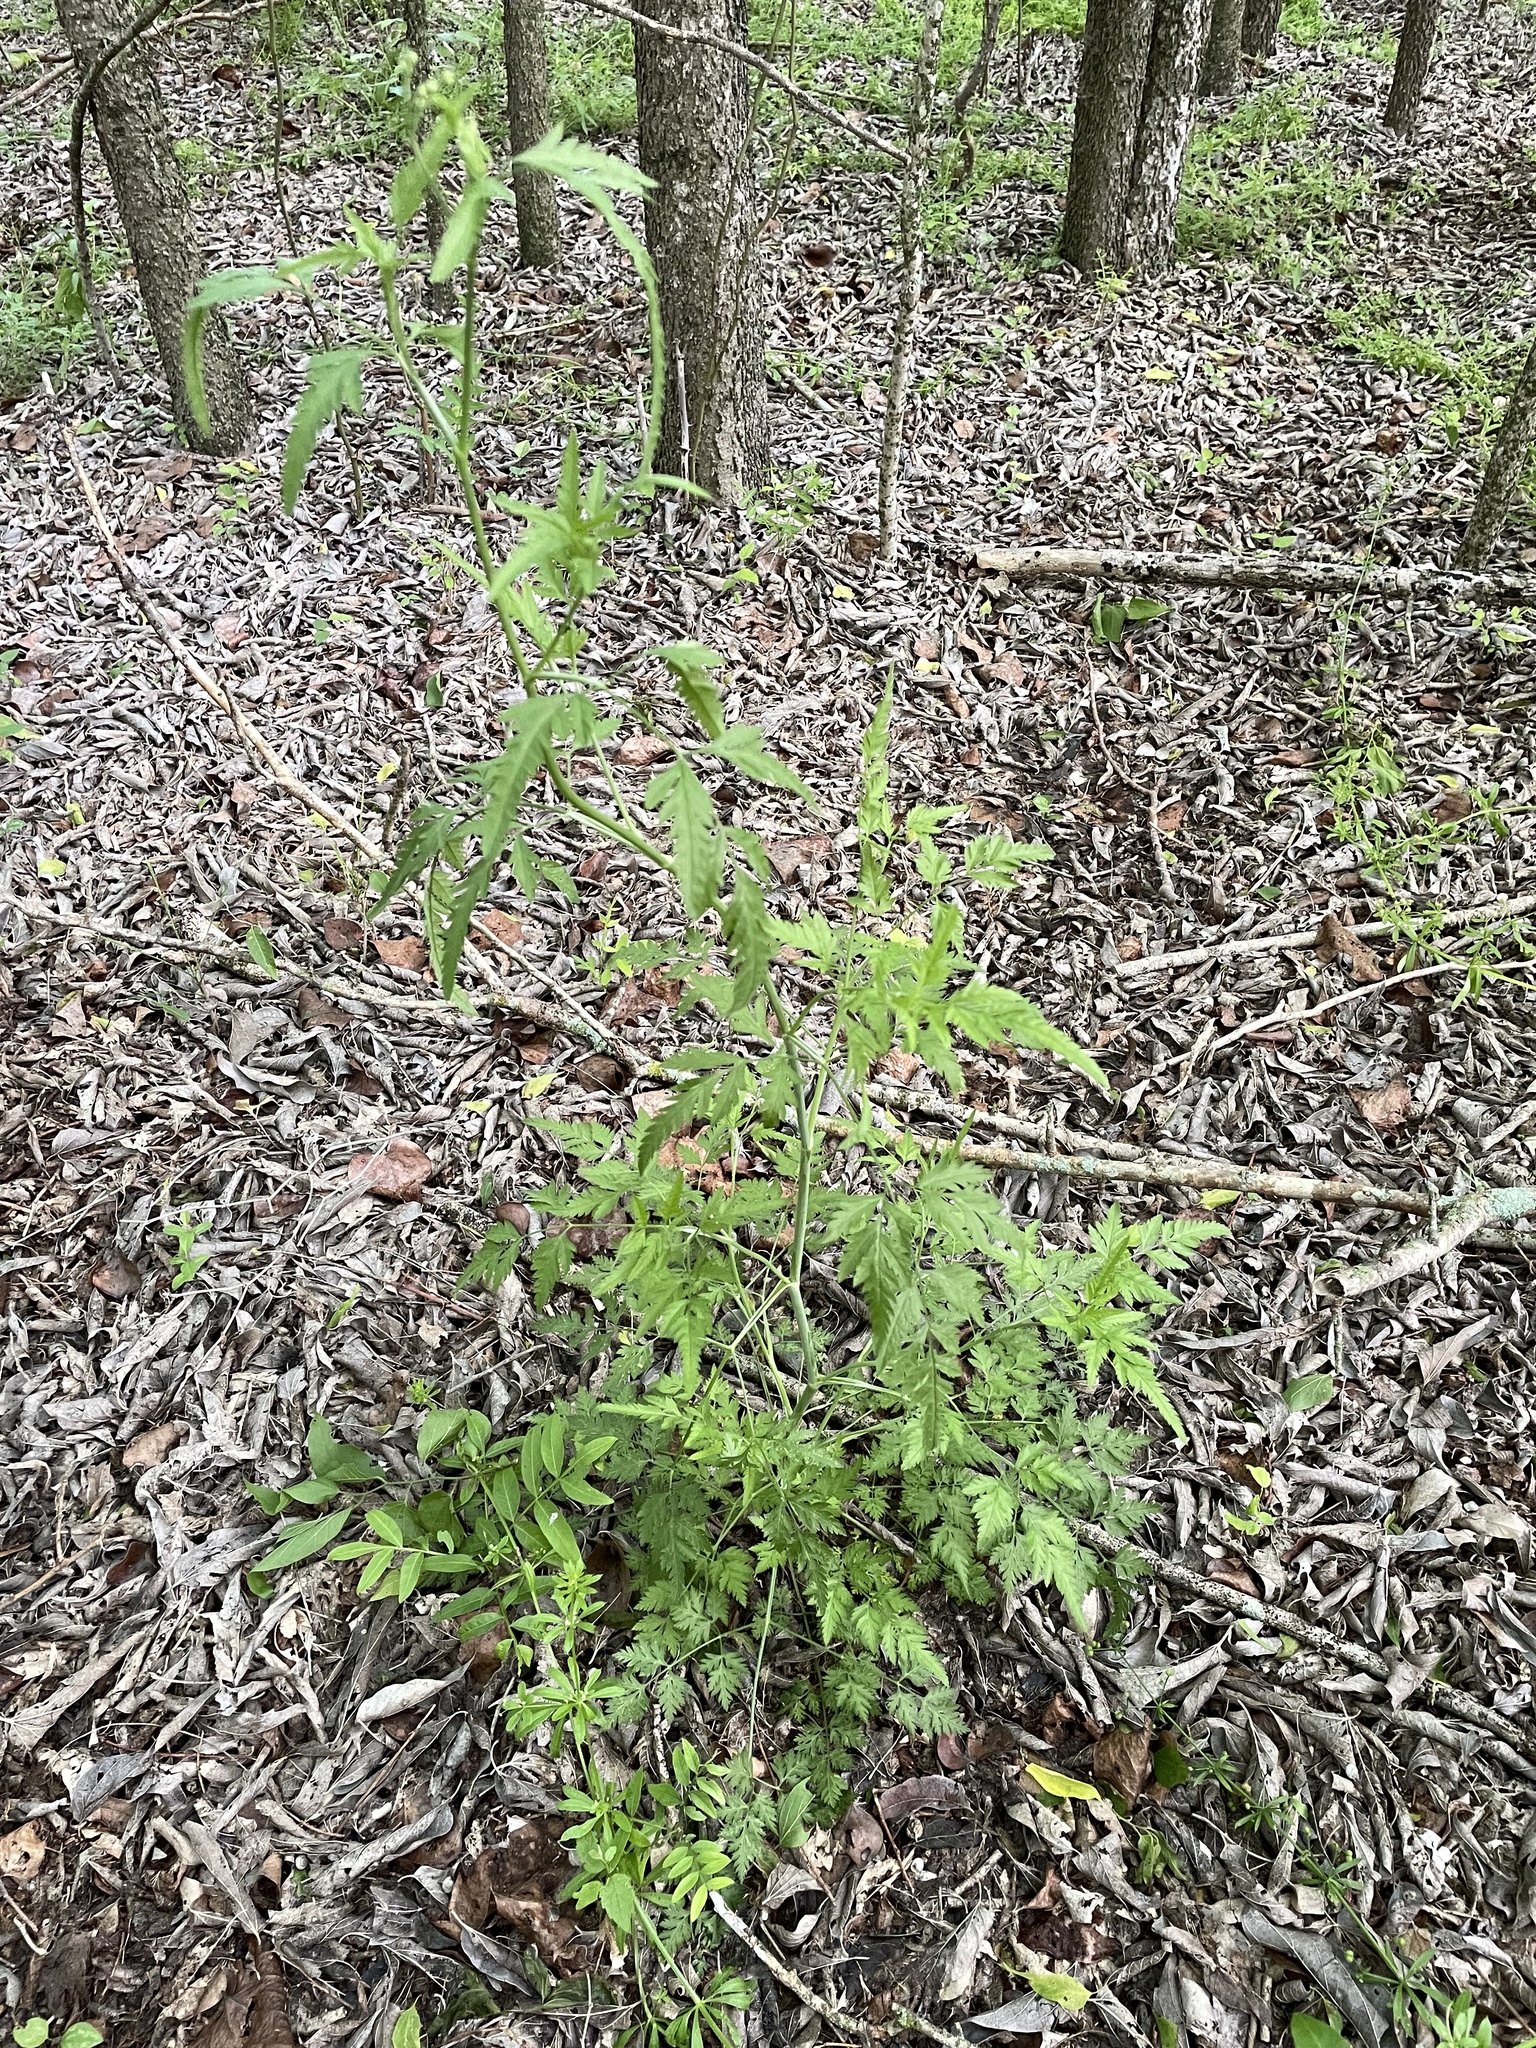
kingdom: Plantae
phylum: Tracheophyta
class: Magnoliopsida
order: Apiales
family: Apiaceae
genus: Torilis
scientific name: Torilis arvensis
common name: Spreading hedge-parsley
